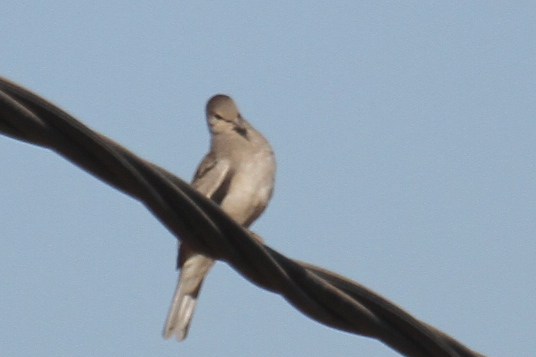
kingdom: Animalia
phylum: Chordata
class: Aves
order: Columbiformes
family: Columbidae
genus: Columbina
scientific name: Columbina picui
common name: Picui ground dove
